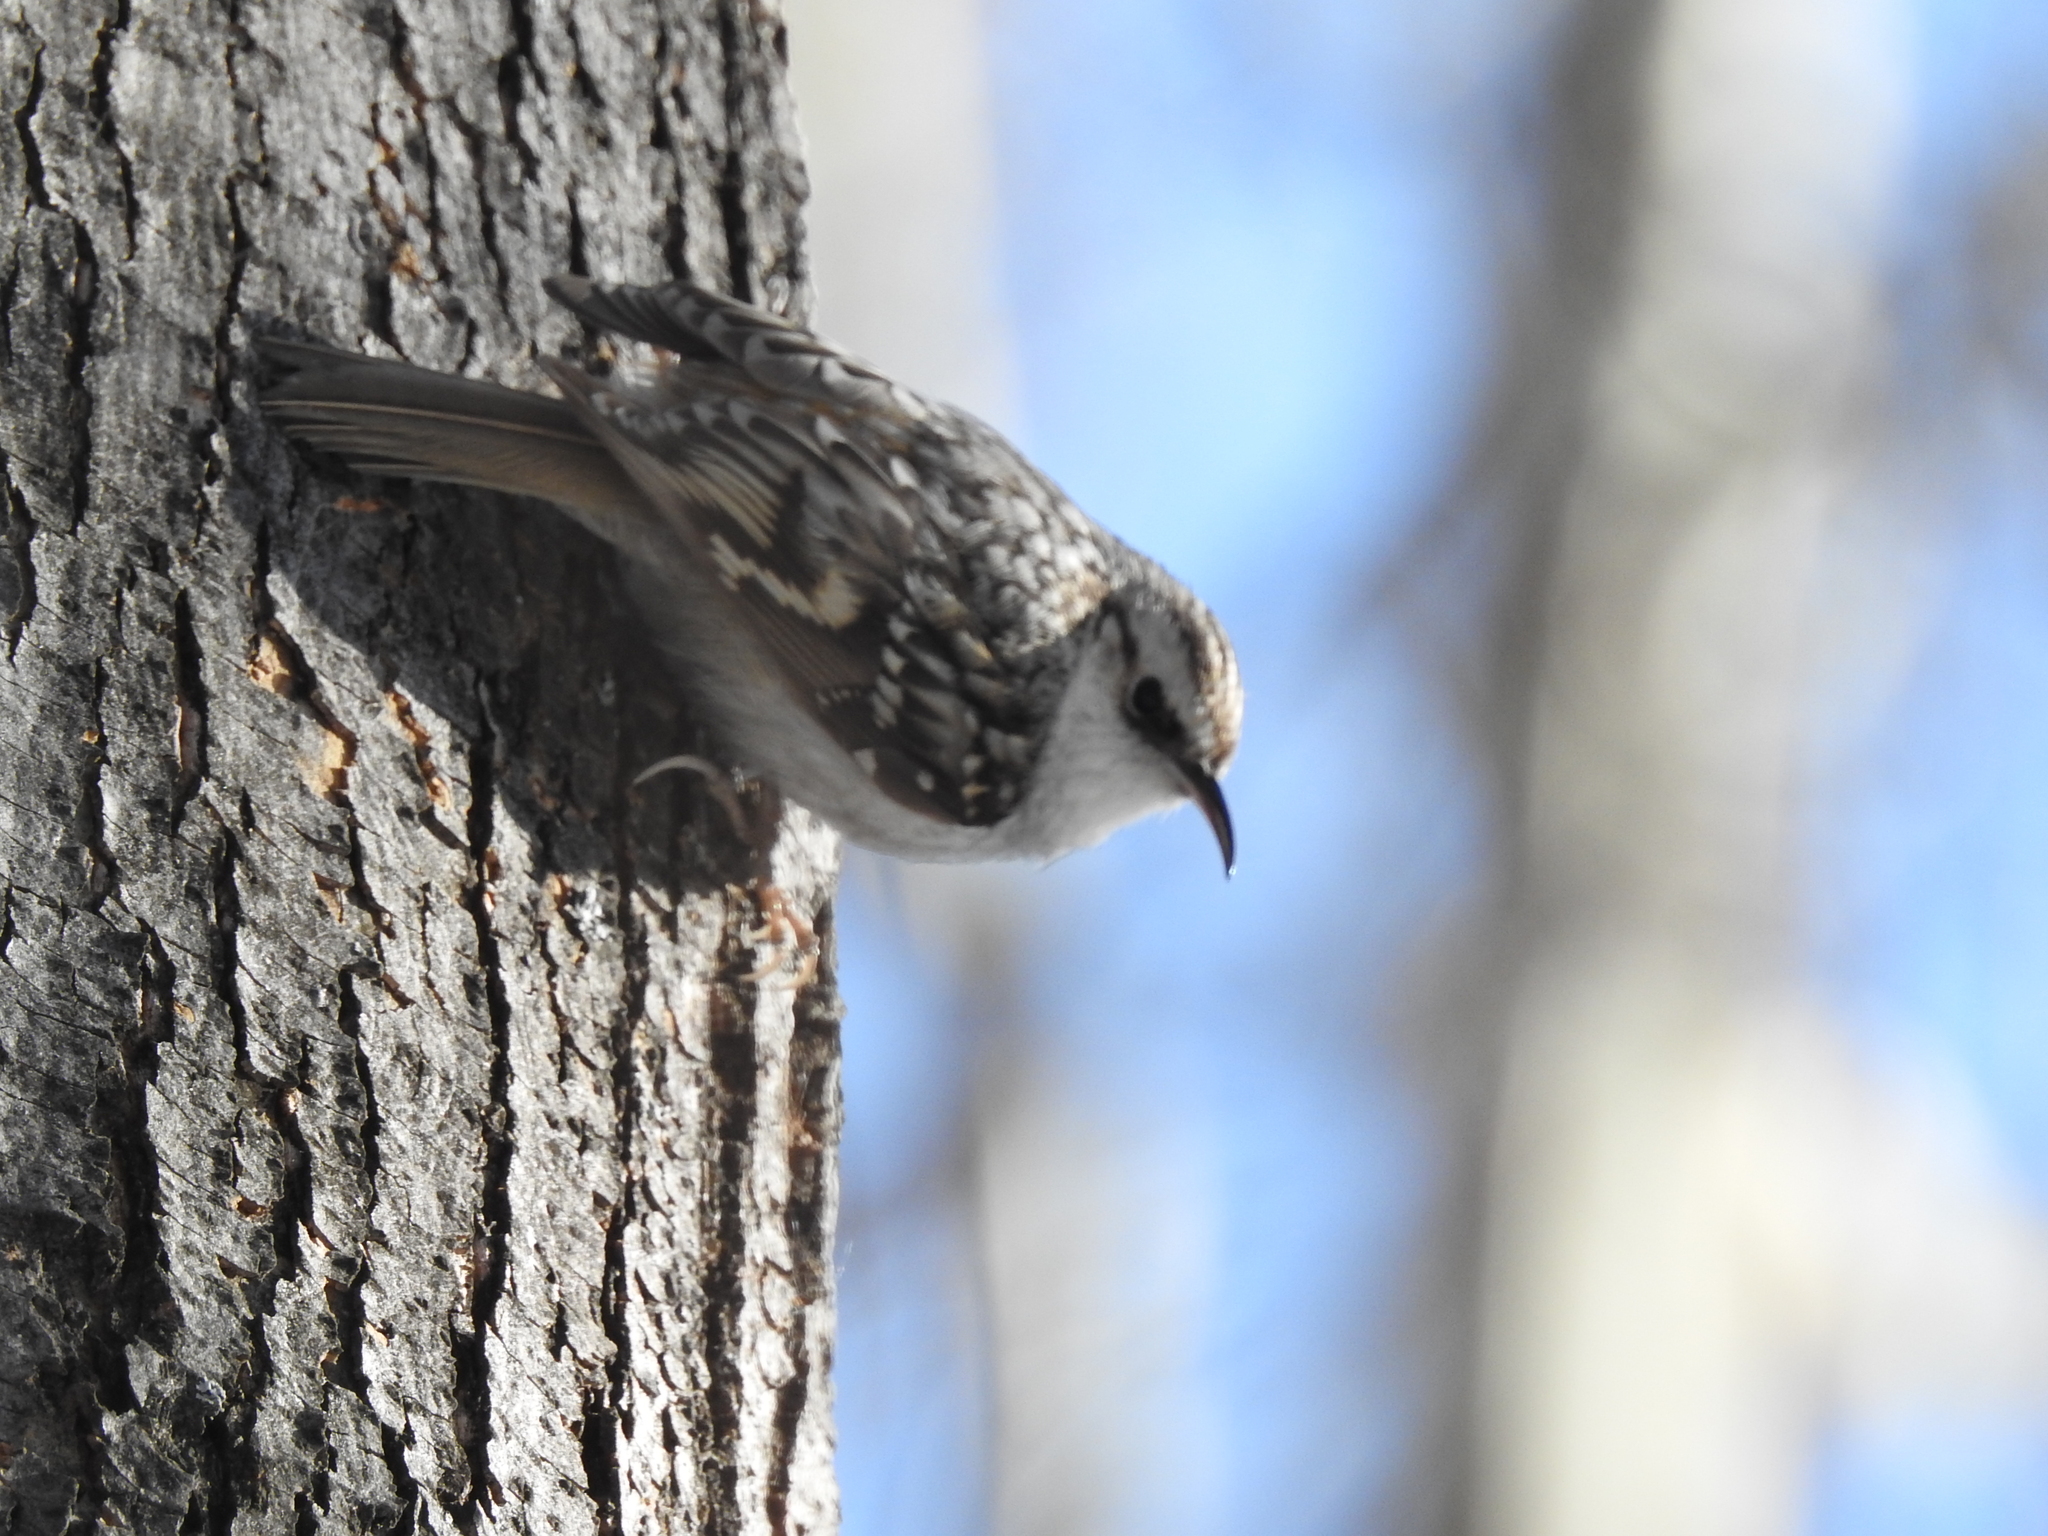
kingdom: Animalia
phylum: Chordata
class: Aves
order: Passeriformes
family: Certhiidae
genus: Certhia
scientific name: Certhia familiaris
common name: Eurasian treecreeper
